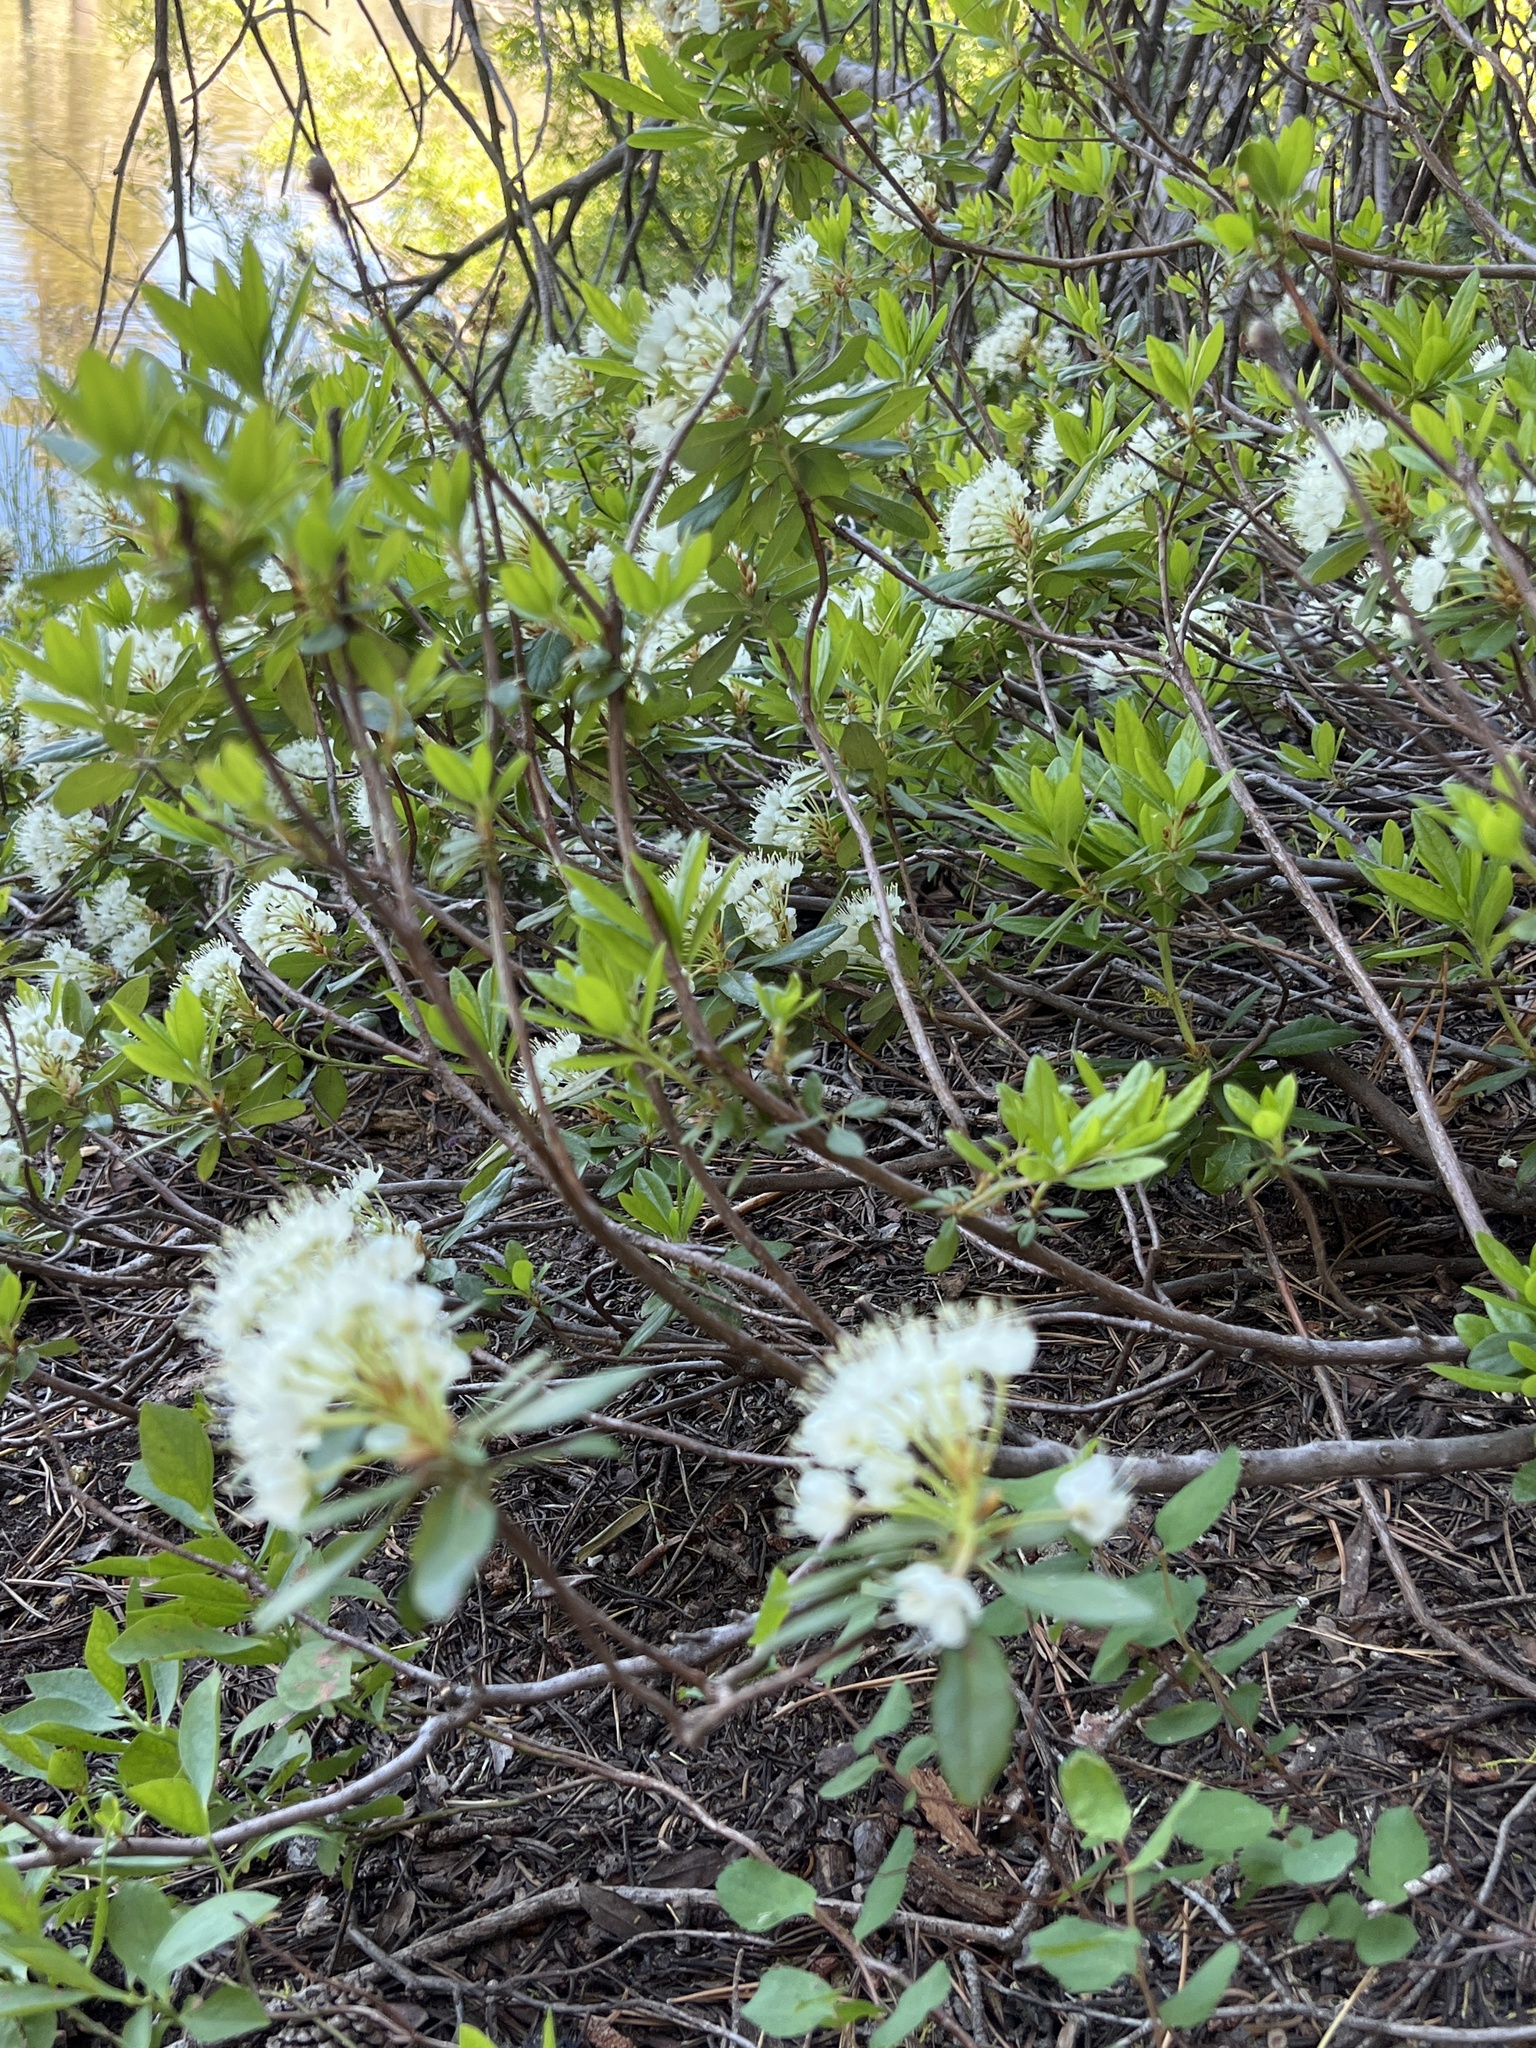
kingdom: Plantae
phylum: Tracheophyta
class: Magnoliopsida
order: Ericales
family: Ericaceae
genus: Rhododendron
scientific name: Rhododendron columbianum
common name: Western labrador tea
